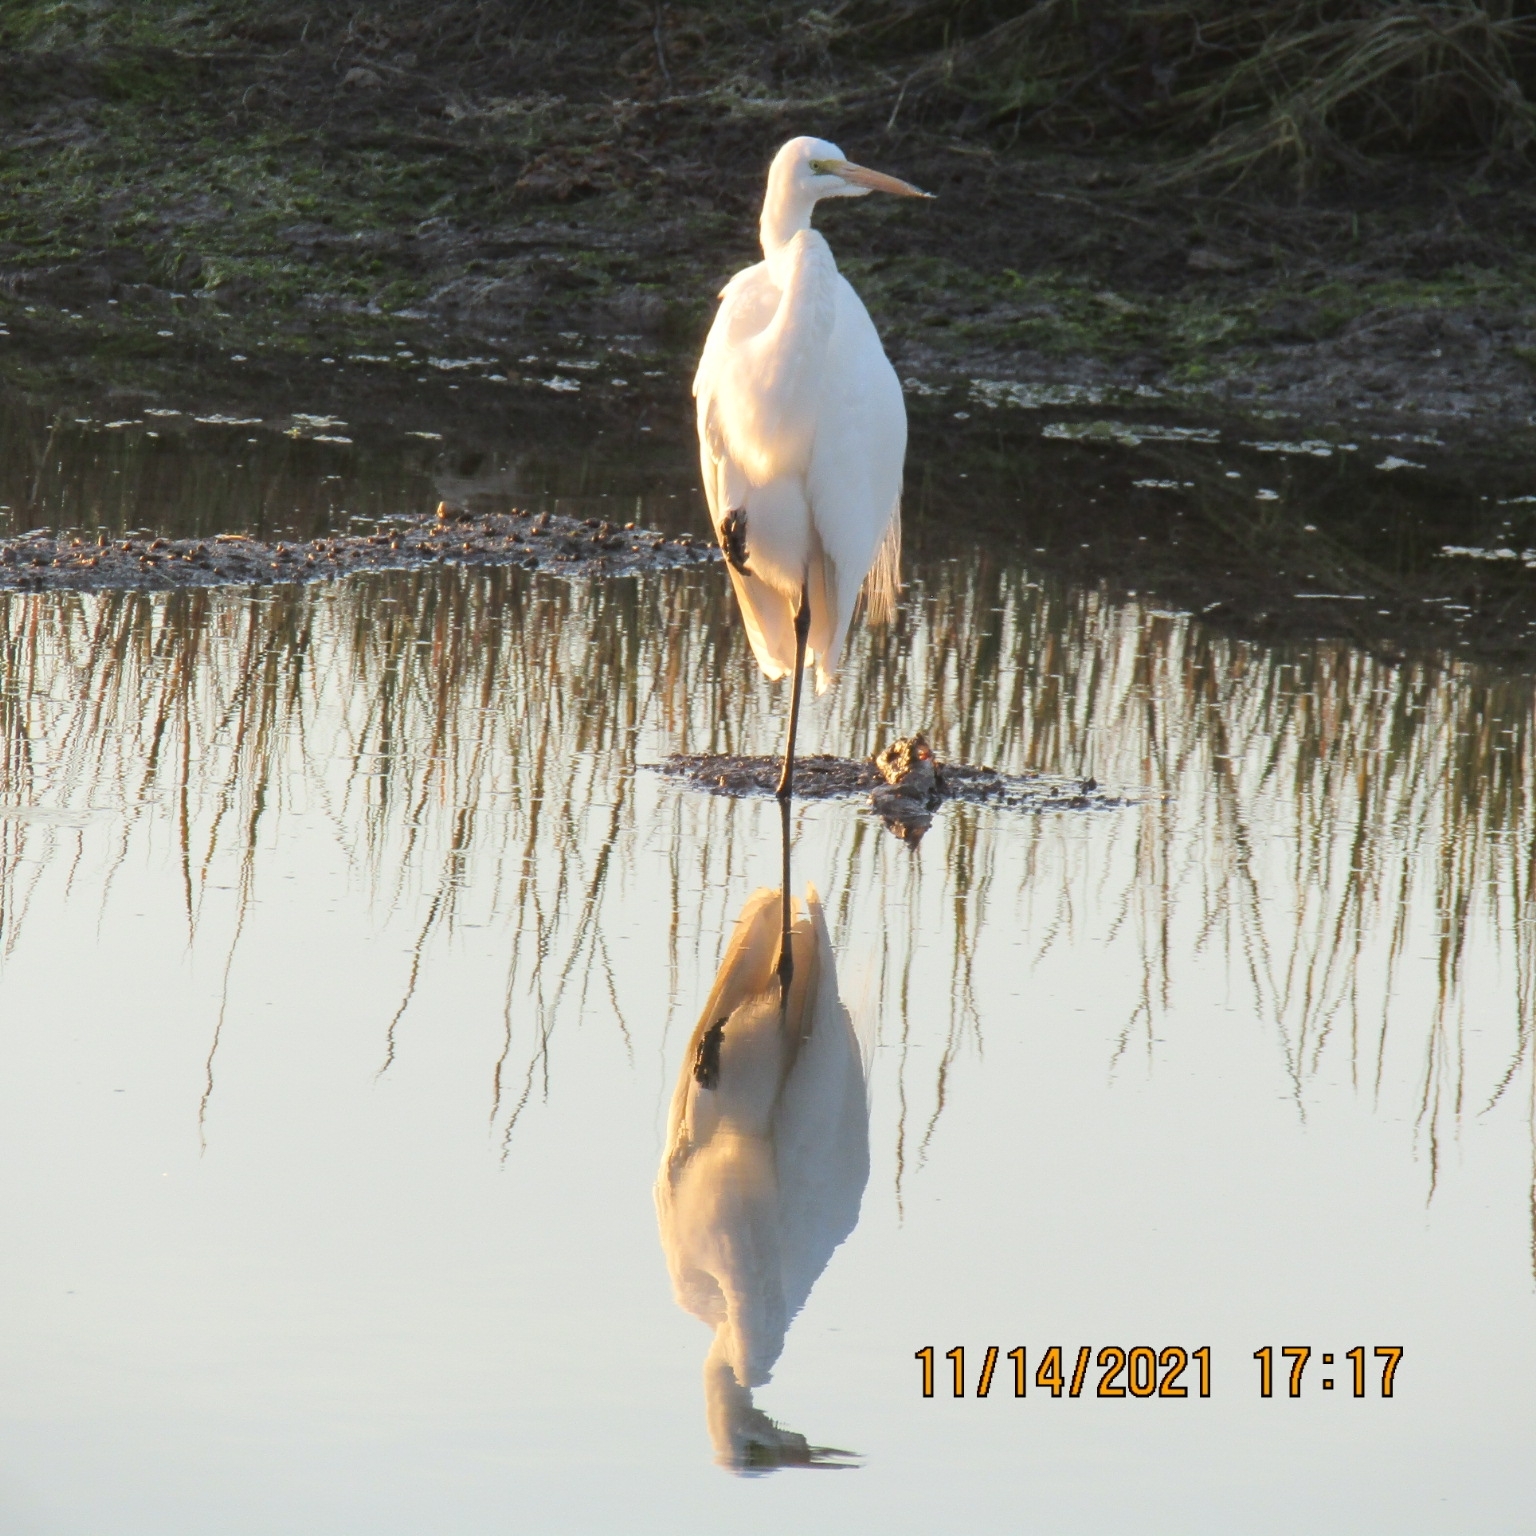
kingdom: Animalia
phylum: Chordata
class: Aves
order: Pelecaniformes
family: Ardeidae
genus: Ardea
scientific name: Ardea alba
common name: Great egret
